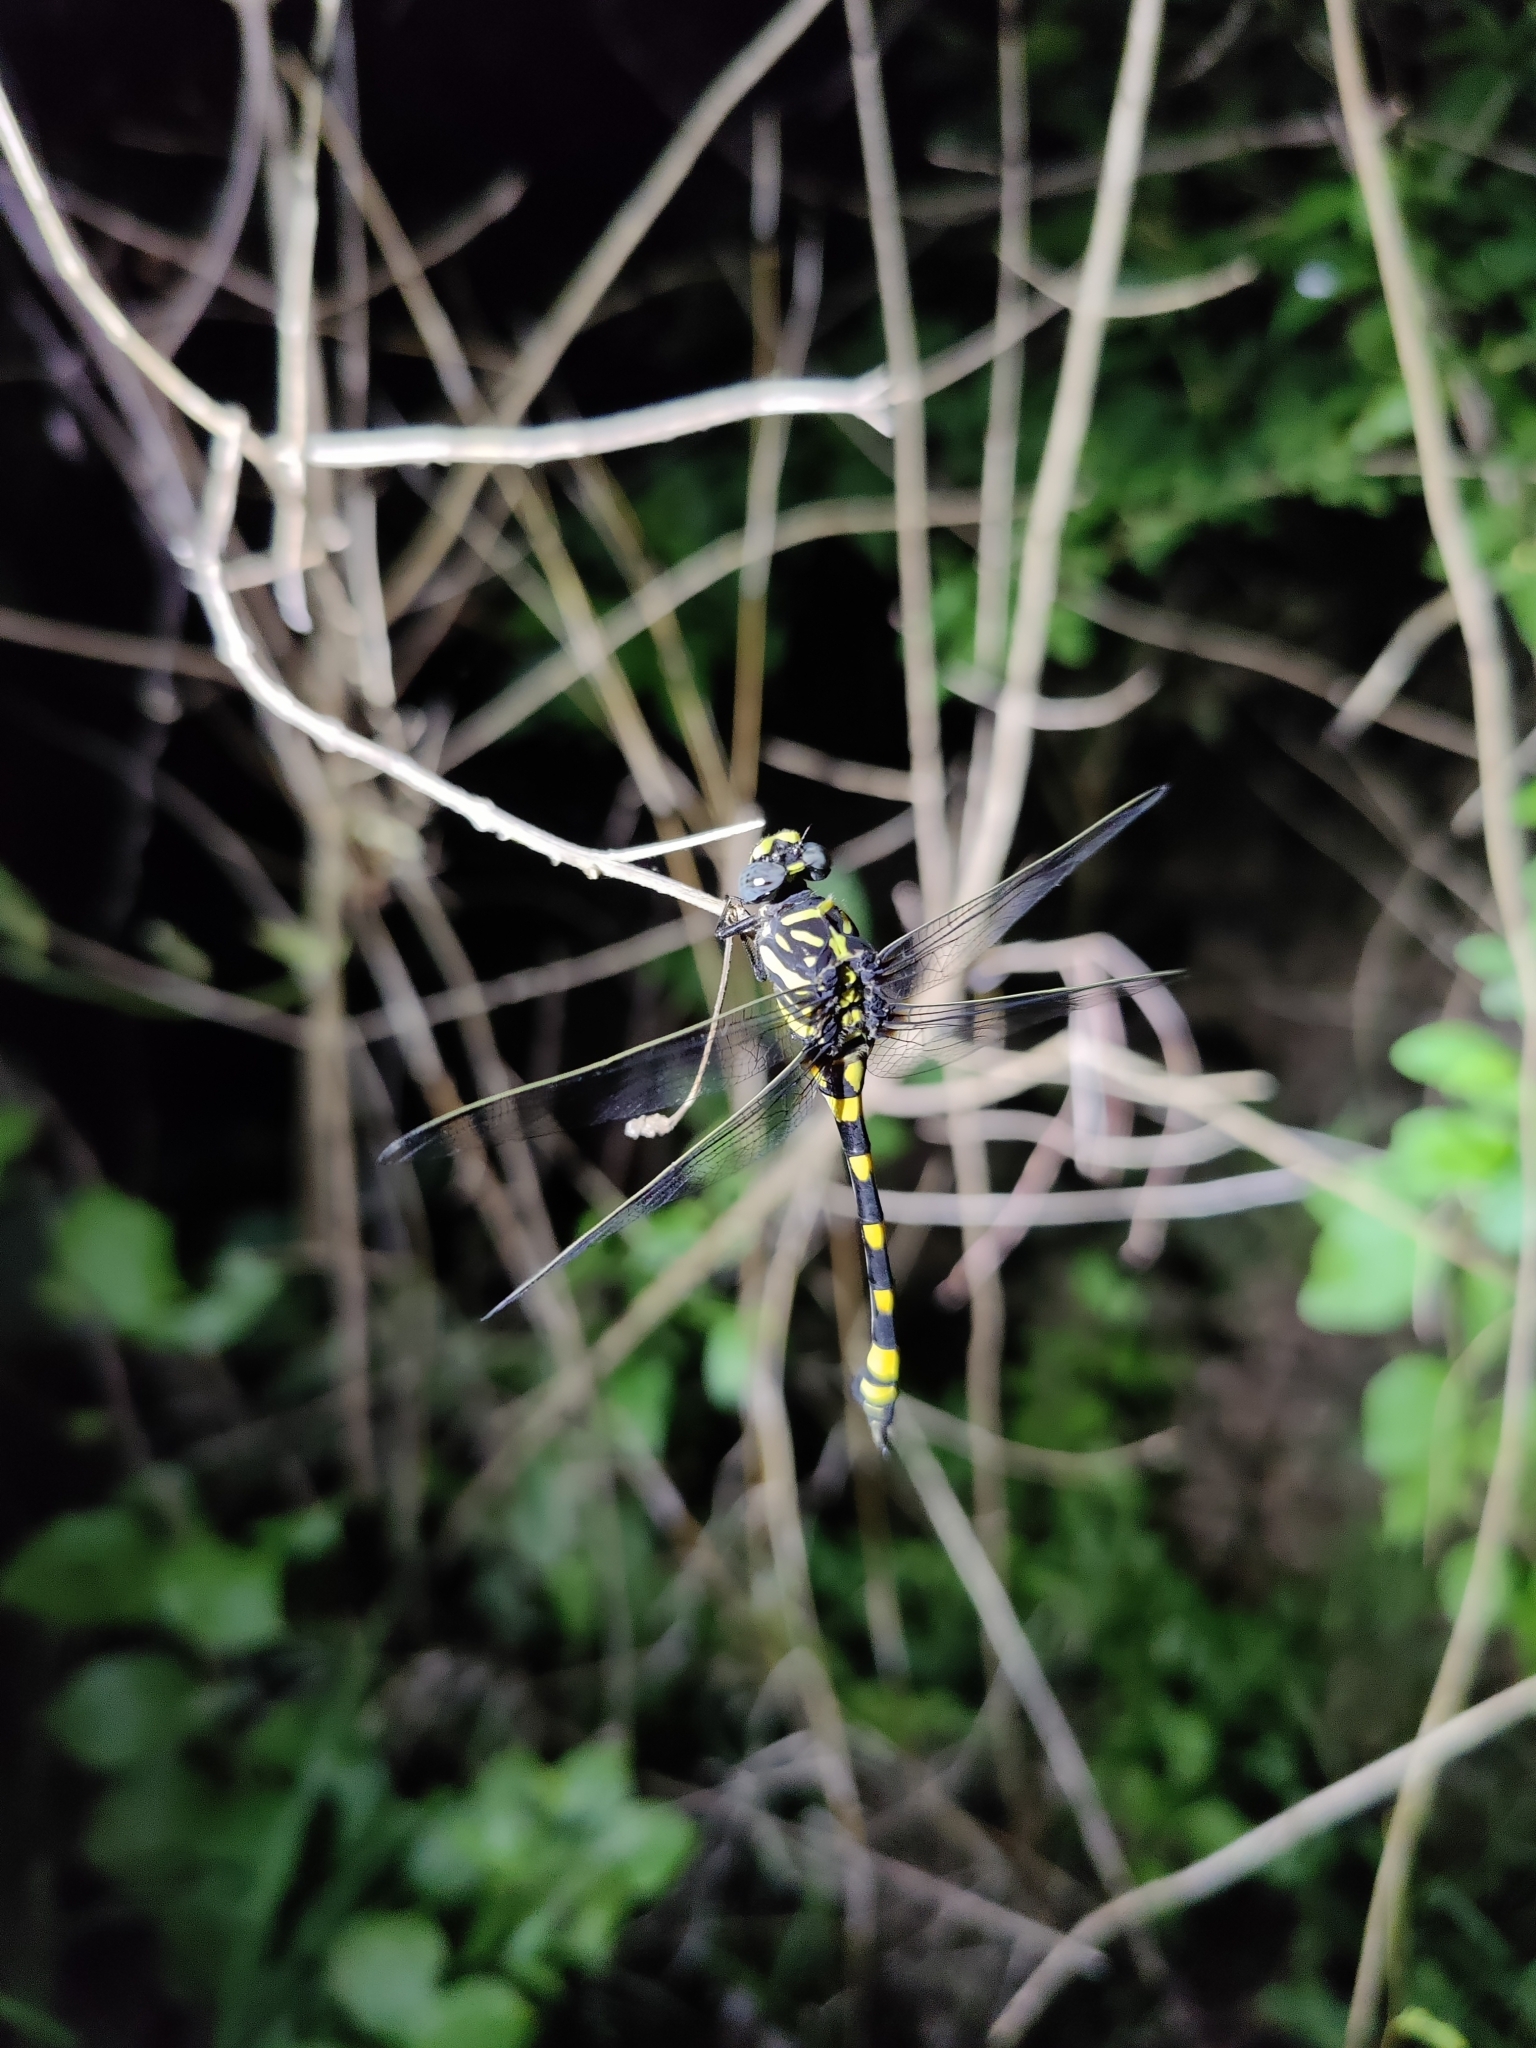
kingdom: Animalia
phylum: Arthropoda
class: Insecta
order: Odonata
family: Gomphidae
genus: Ictinogomphus
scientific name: Ictinogomphus rapax
